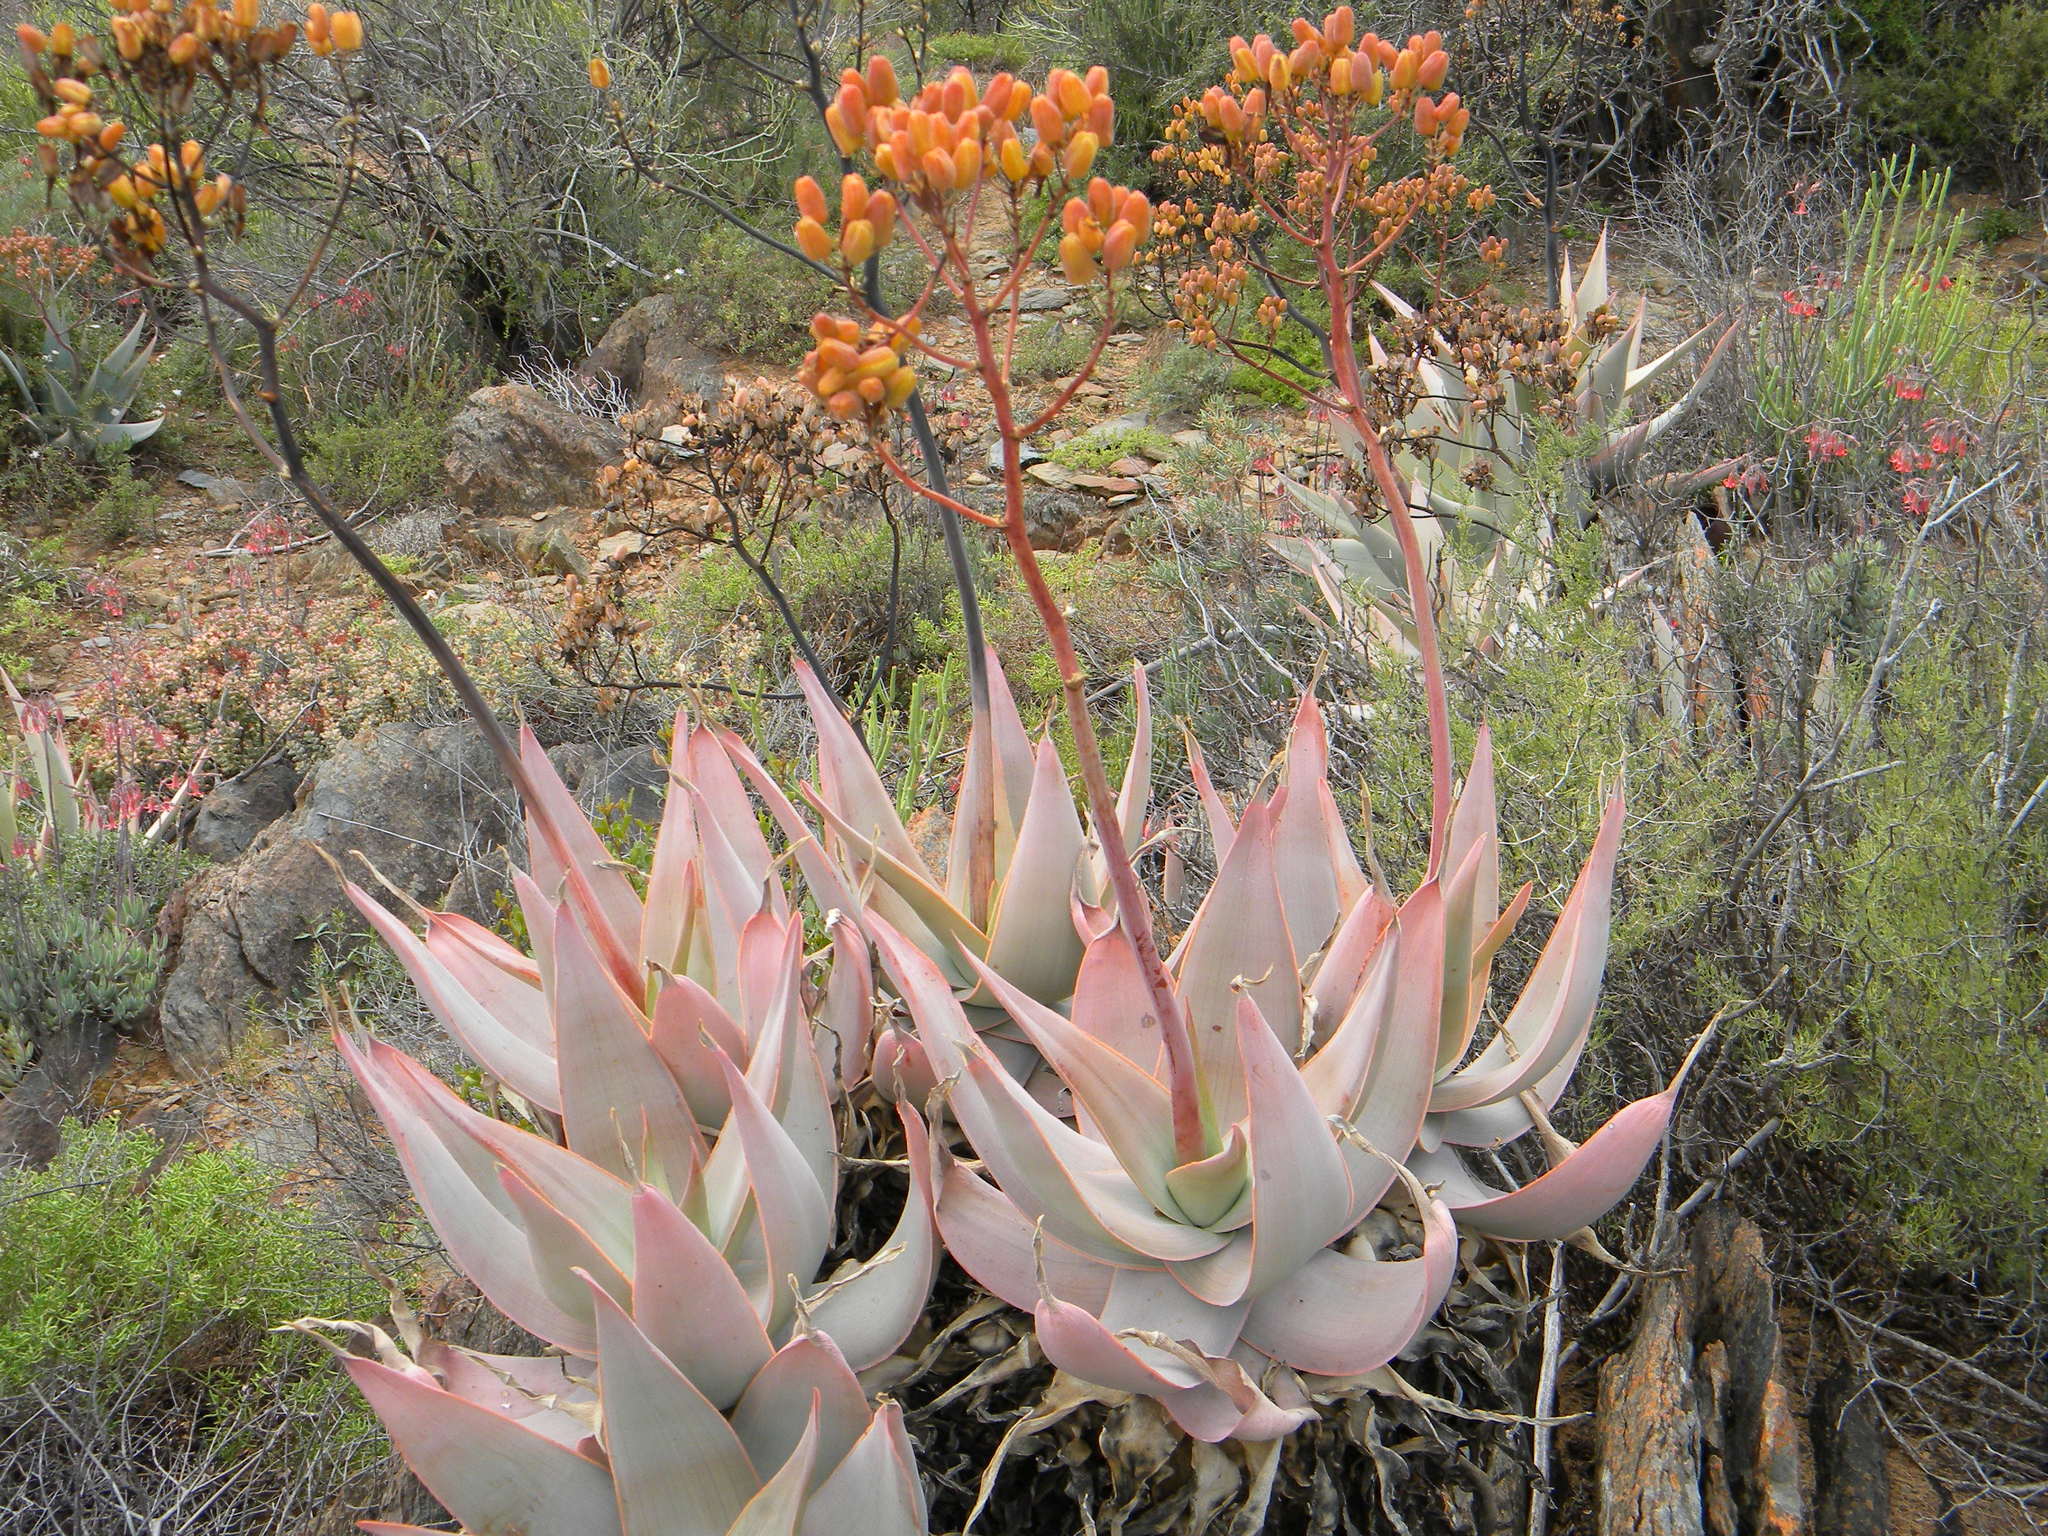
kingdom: Plantae
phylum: Tracheophyta
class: Liliopsida
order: Asparagales
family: Asphodelaceae
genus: Aloe
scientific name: Aloe striata
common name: Coral aloe
